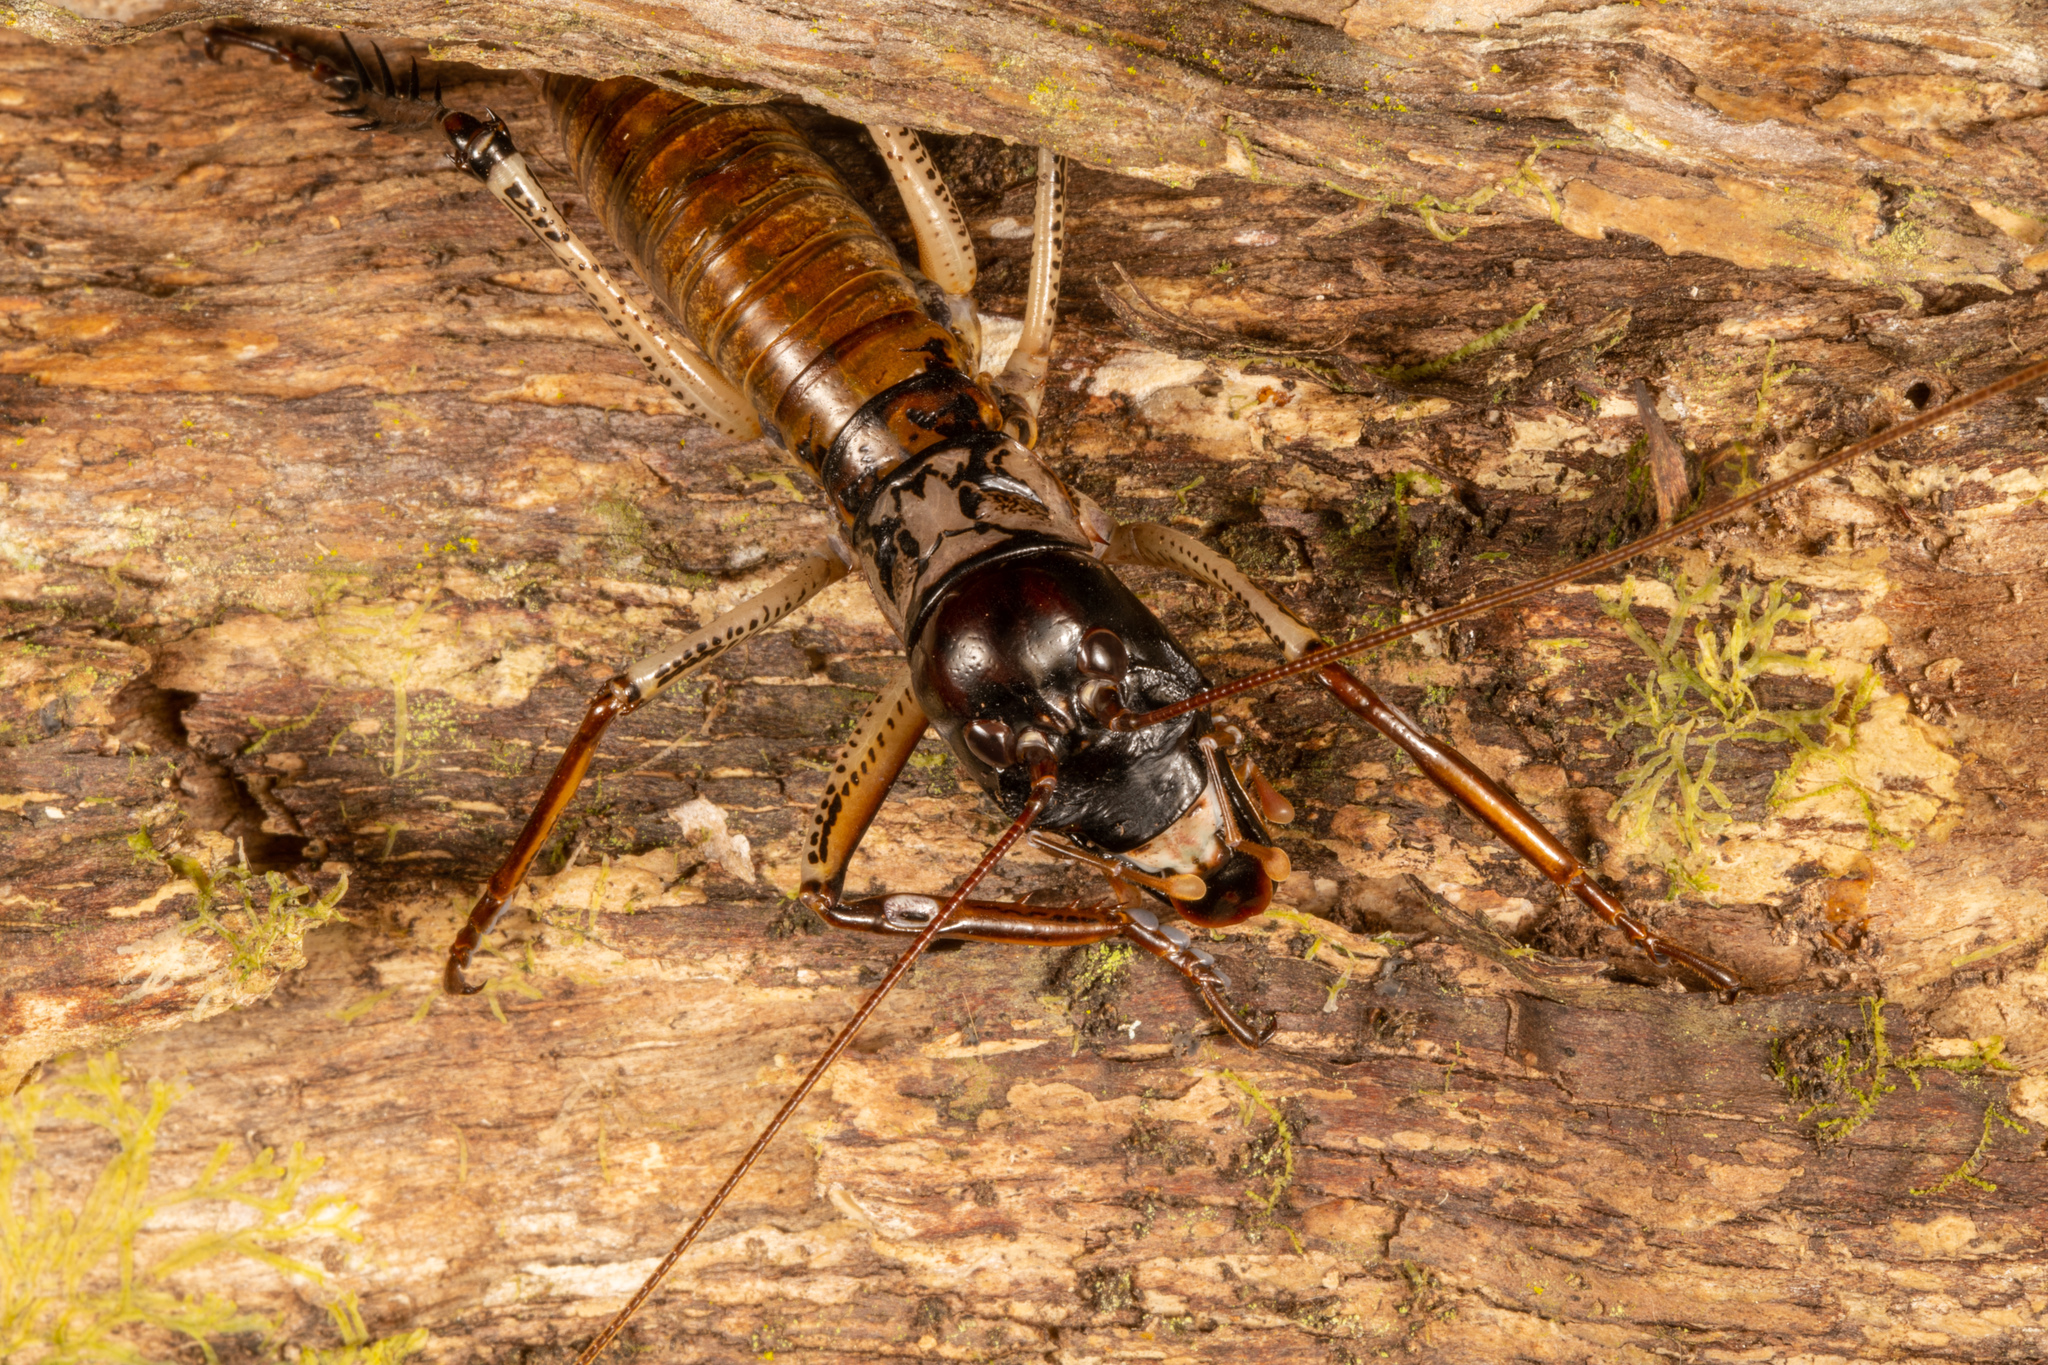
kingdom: Animalia
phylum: Arthropoda
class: Insecta
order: Orthoptera
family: Anostostomatidae
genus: Hemideina
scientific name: Hemideina thoracica
